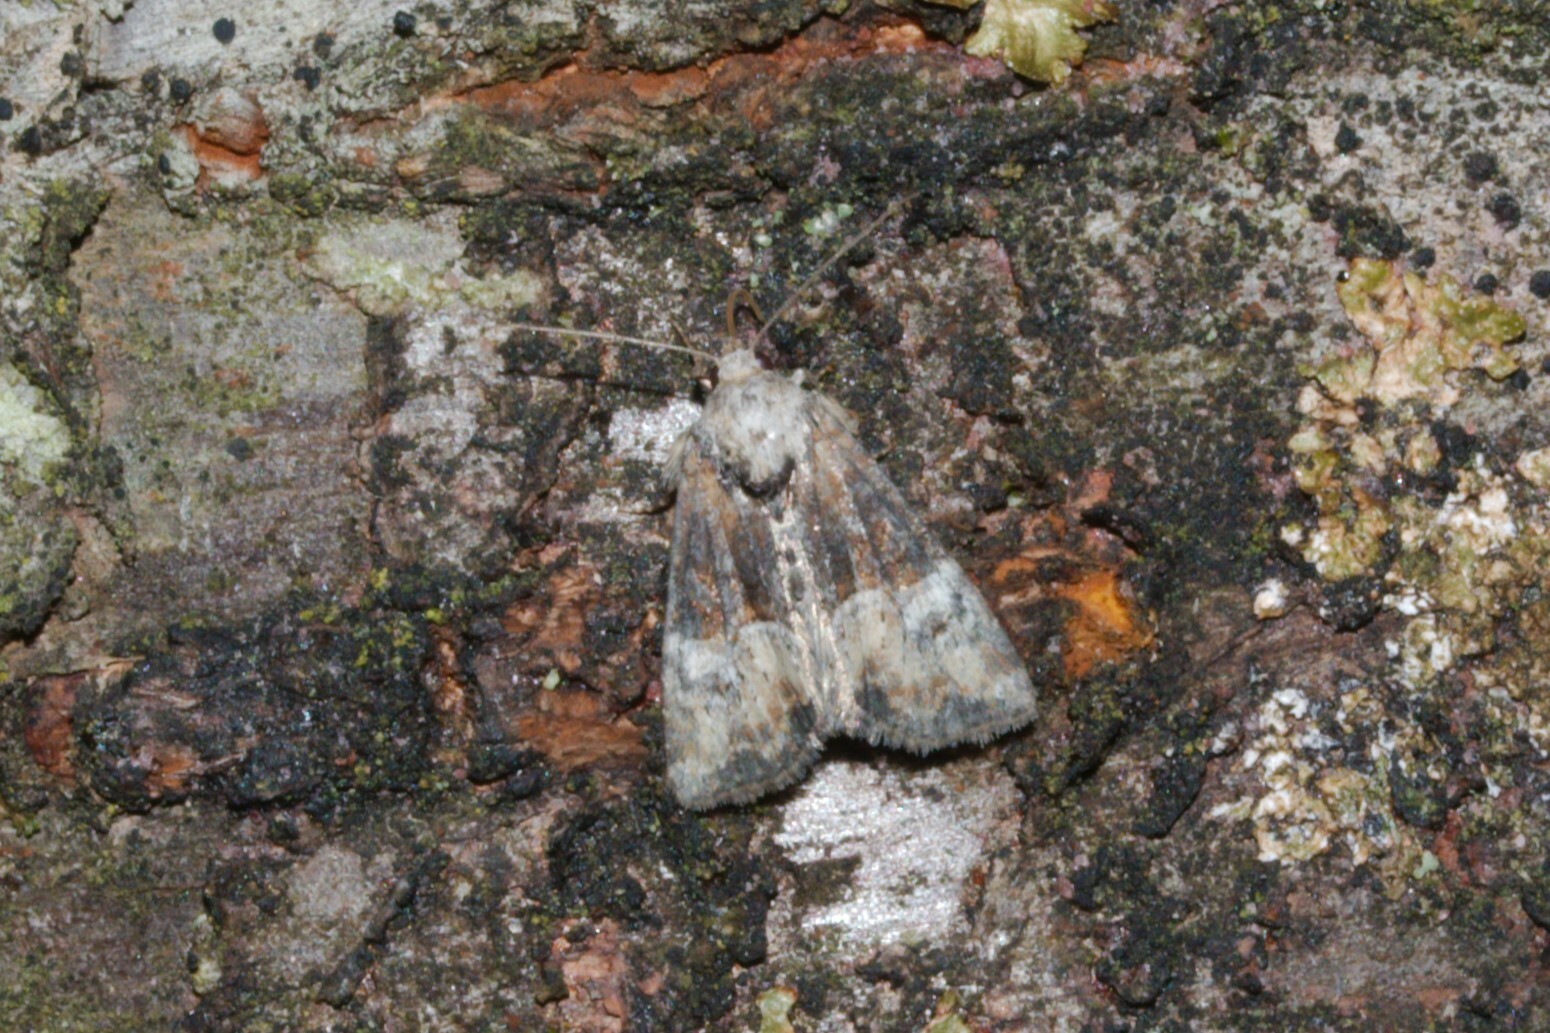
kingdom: Animalia
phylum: Arthropoda
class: Insecta
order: Lepidoptera
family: Noctuidae
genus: Mesoligia
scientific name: Mesoligia furuncula
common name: Cloaked minor
